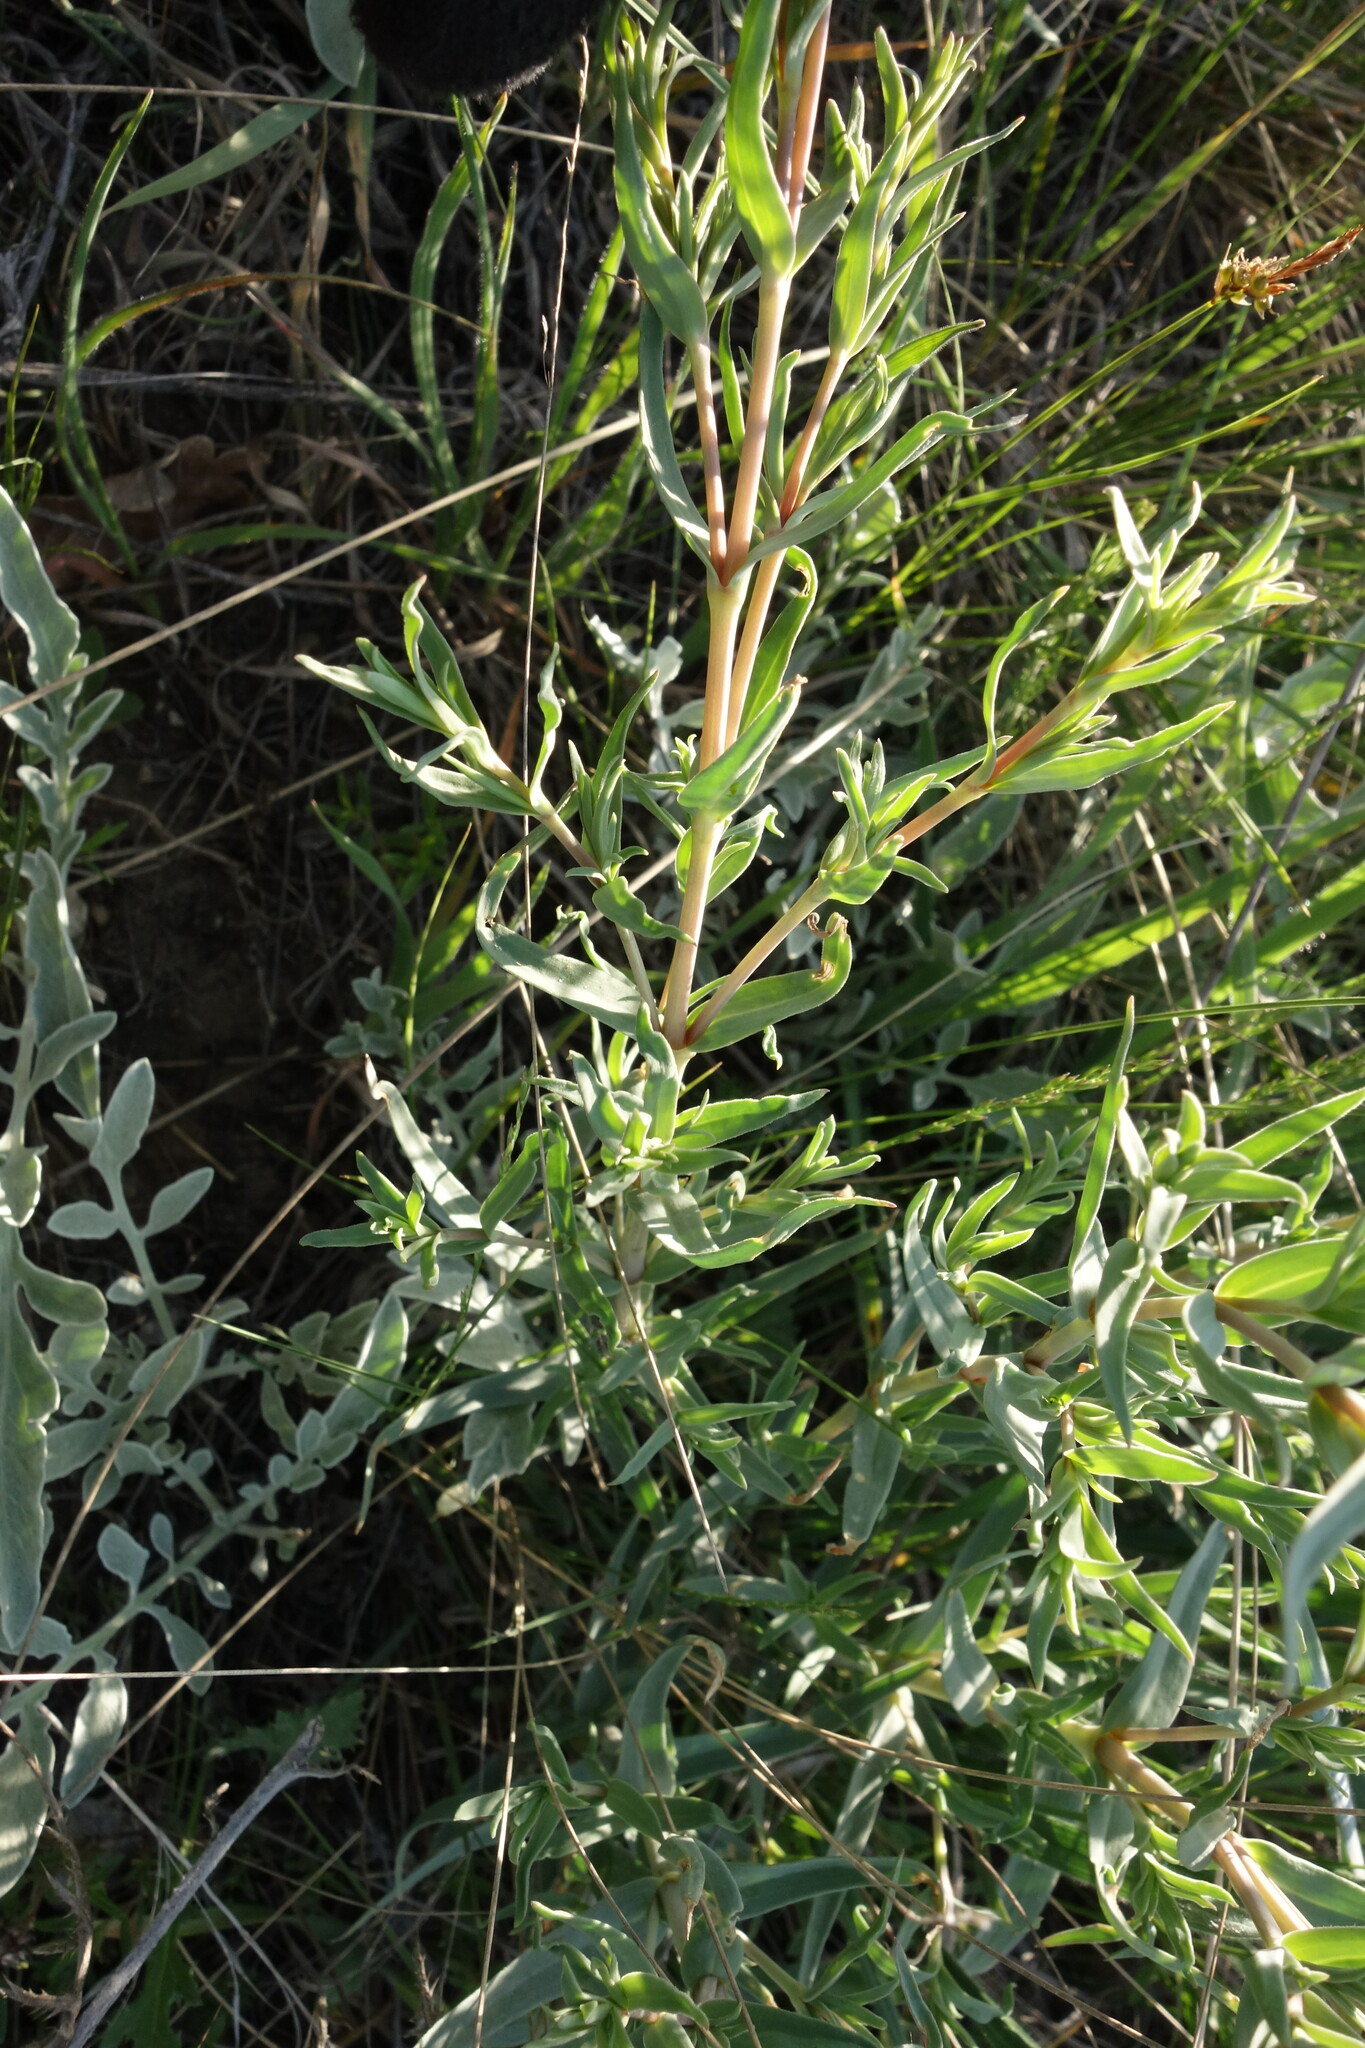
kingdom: Plantae
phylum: Tracheophyta
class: Magnoliopsida
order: Caryophyllales
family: Caryophyllaceae
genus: Gypsophila
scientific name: Gypsophila paniculata
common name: Baby's-breath
